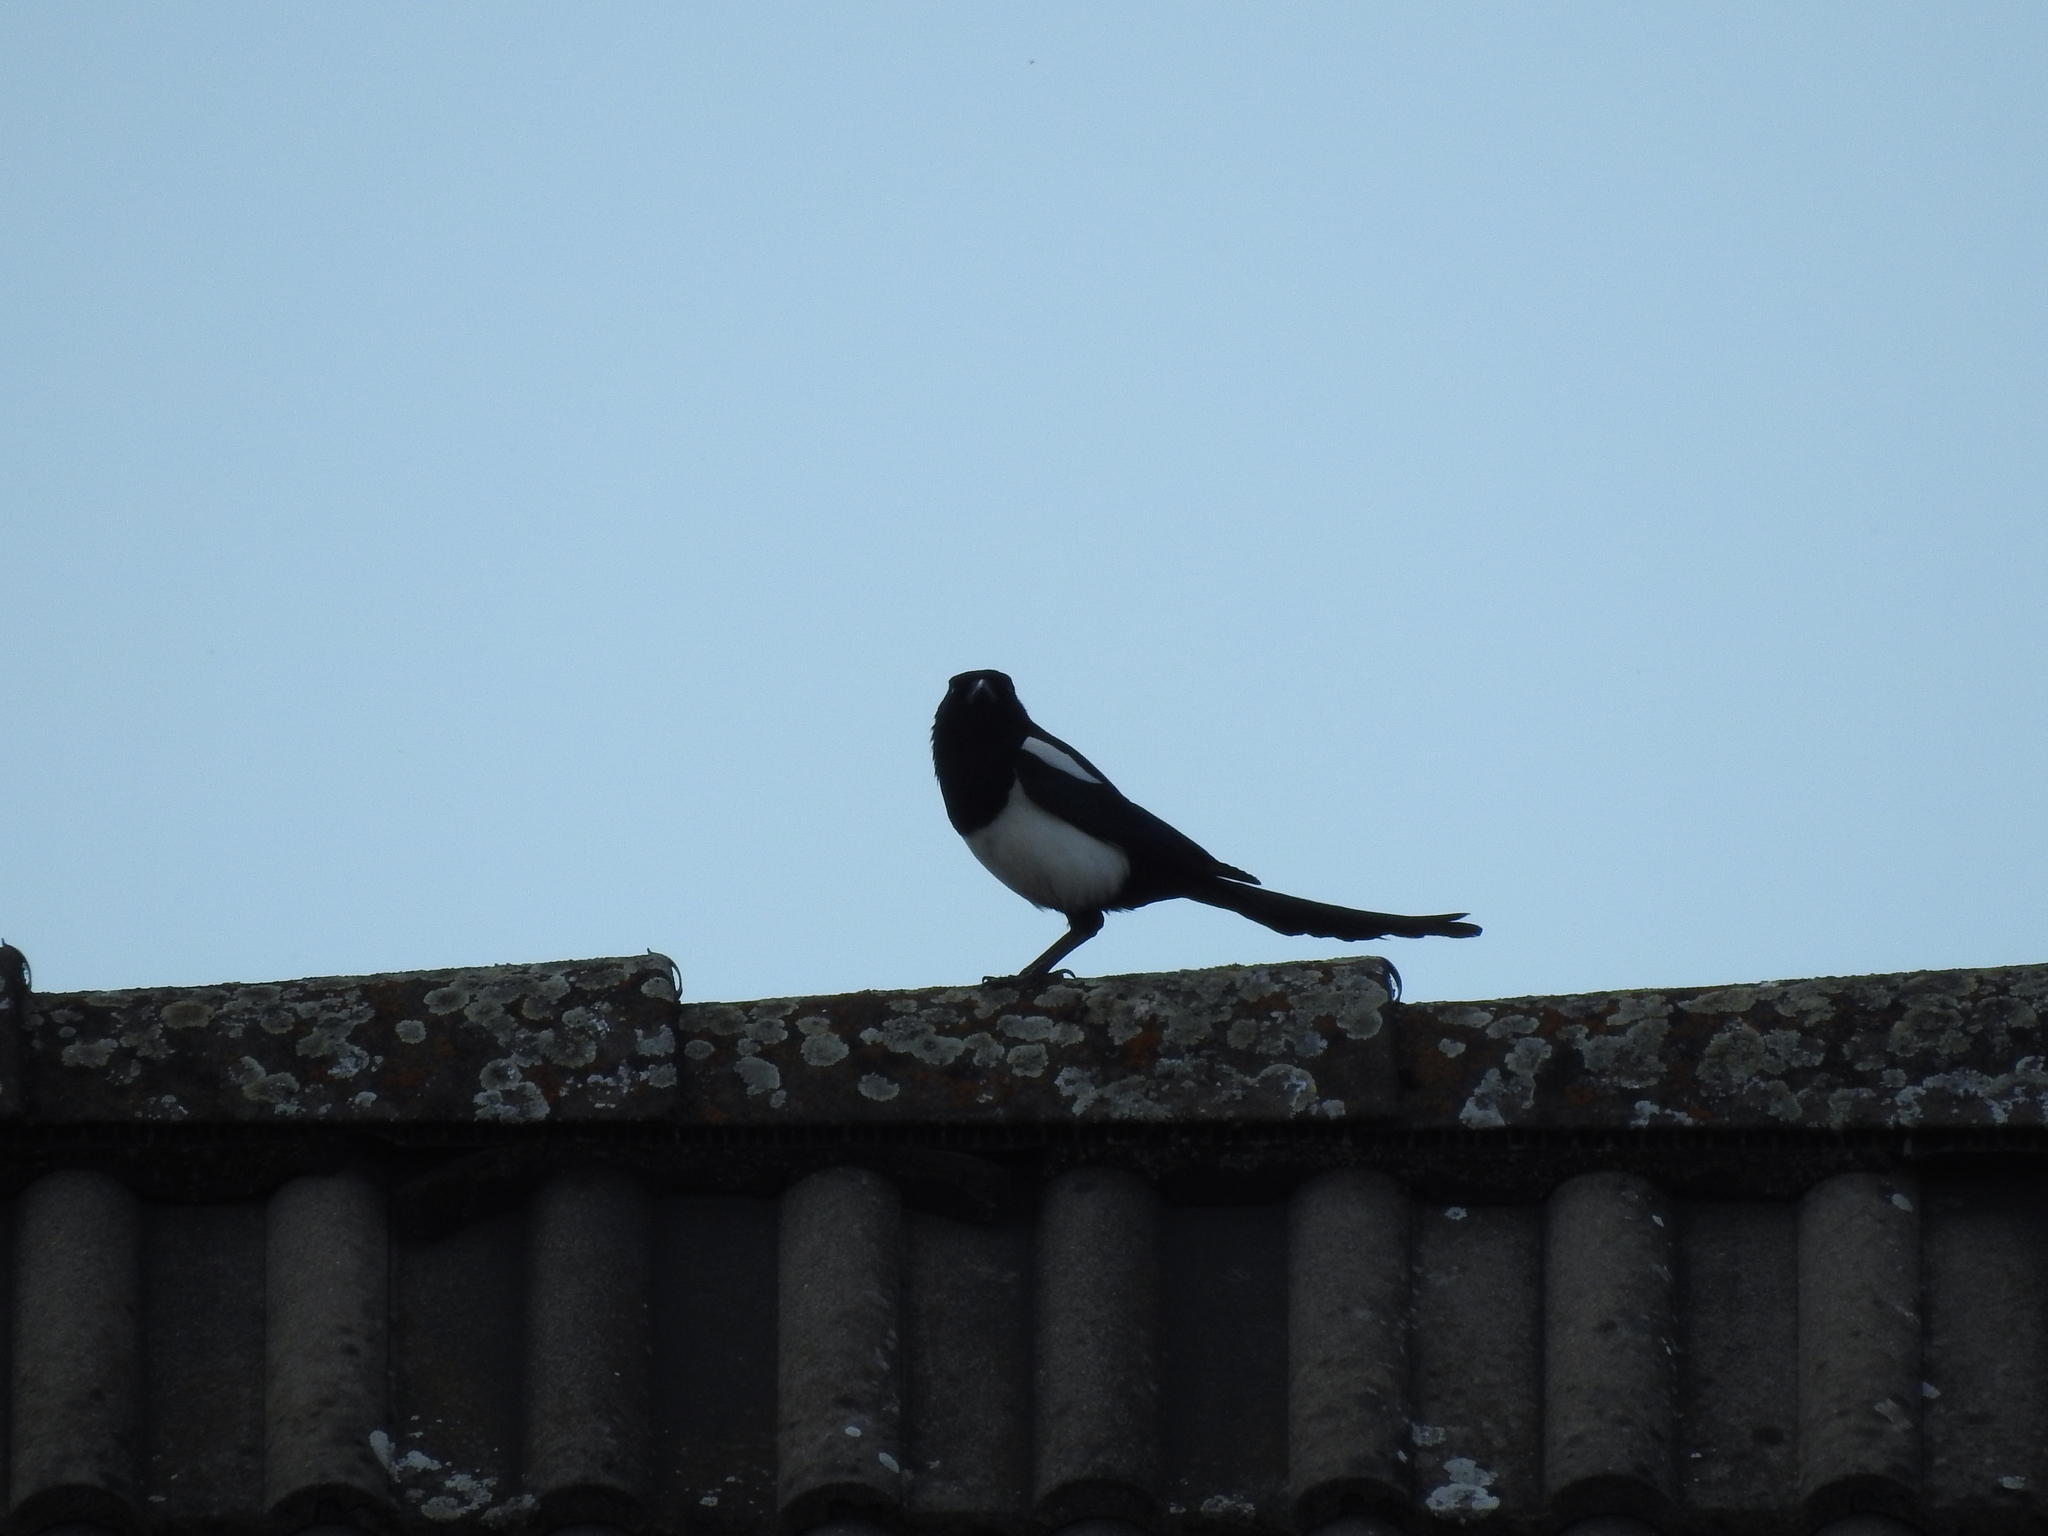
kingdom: Animalia
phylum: Chordata
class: Aves
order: Passeriformes
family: Corvidae
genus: Pica
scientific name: Pica pica
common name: Eurasian magpie
